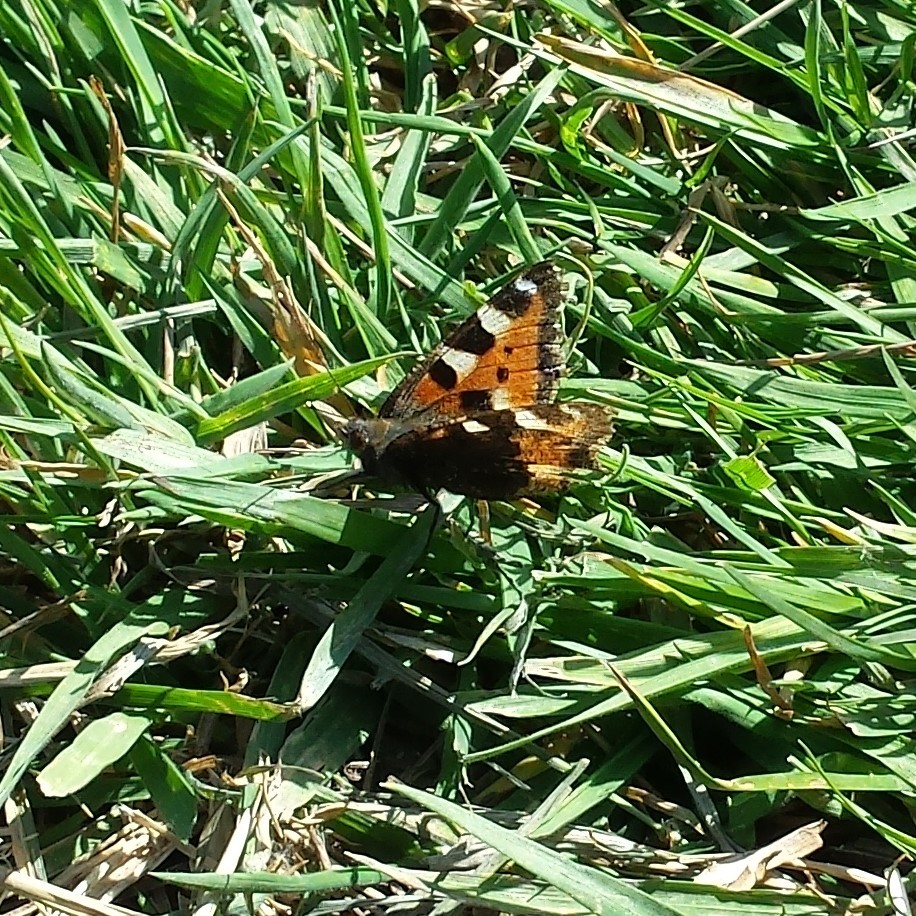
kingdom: Animalia
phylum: Arthropoda
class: Insecta
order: Lepidoptera
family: Nymphalidae
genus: Aglais
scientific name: Aglais urticae
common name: Small tortoiseshell
